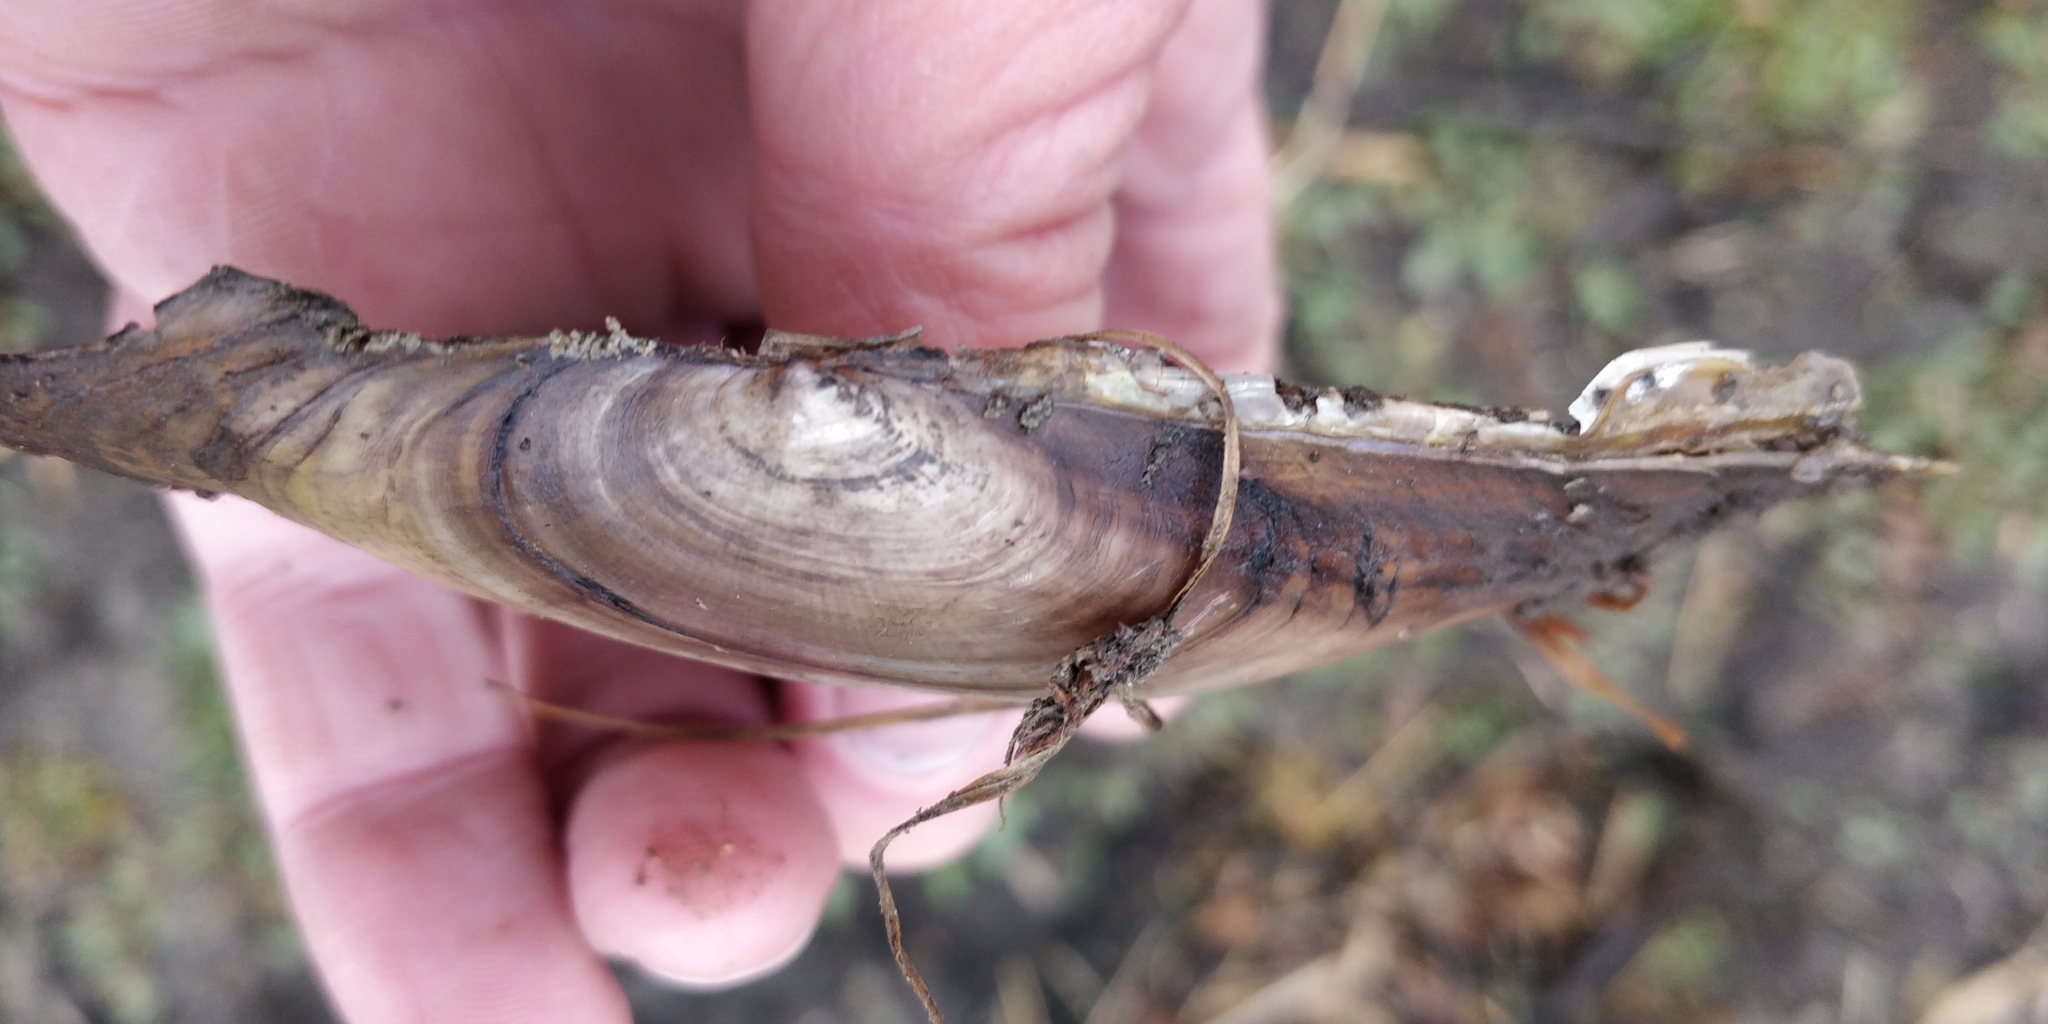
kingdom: Animalia
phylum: Mollusca
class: Bivalvia
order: Unionida
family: Unionidae
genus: Potamilus
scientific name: Potamilus fragilis
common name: Fragile papershell
